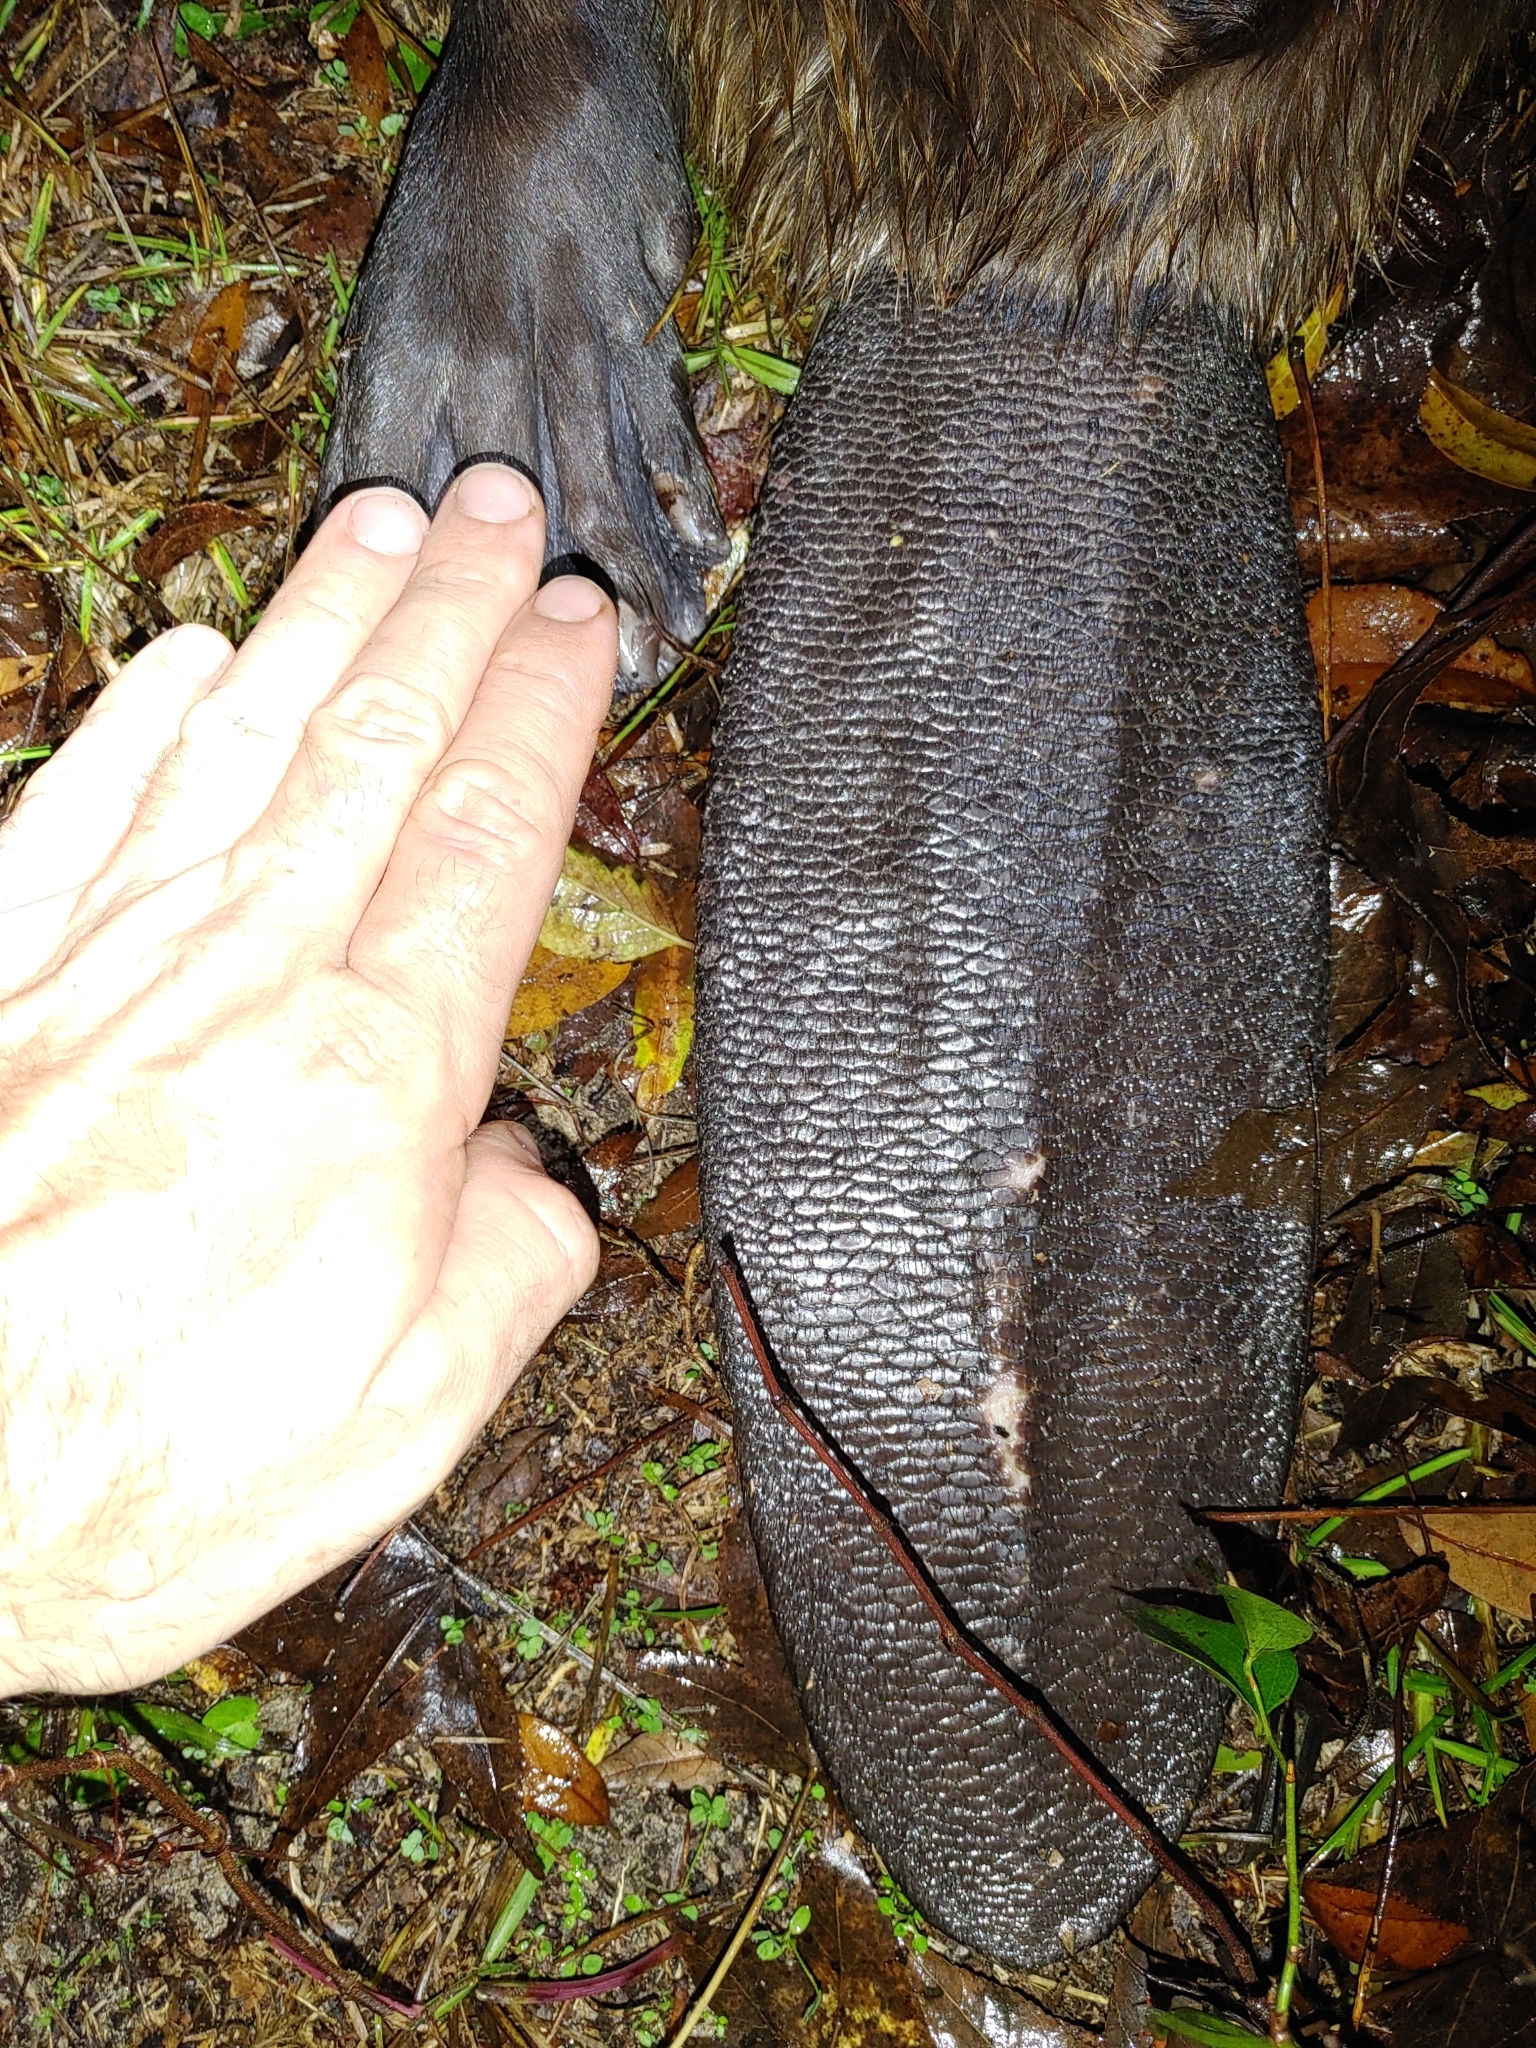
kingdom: Animalia
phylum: Chordata
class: Mammalia
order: Rodentia
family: Castoridae
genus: Castor
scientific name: Castor canadensis
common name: American beaver
